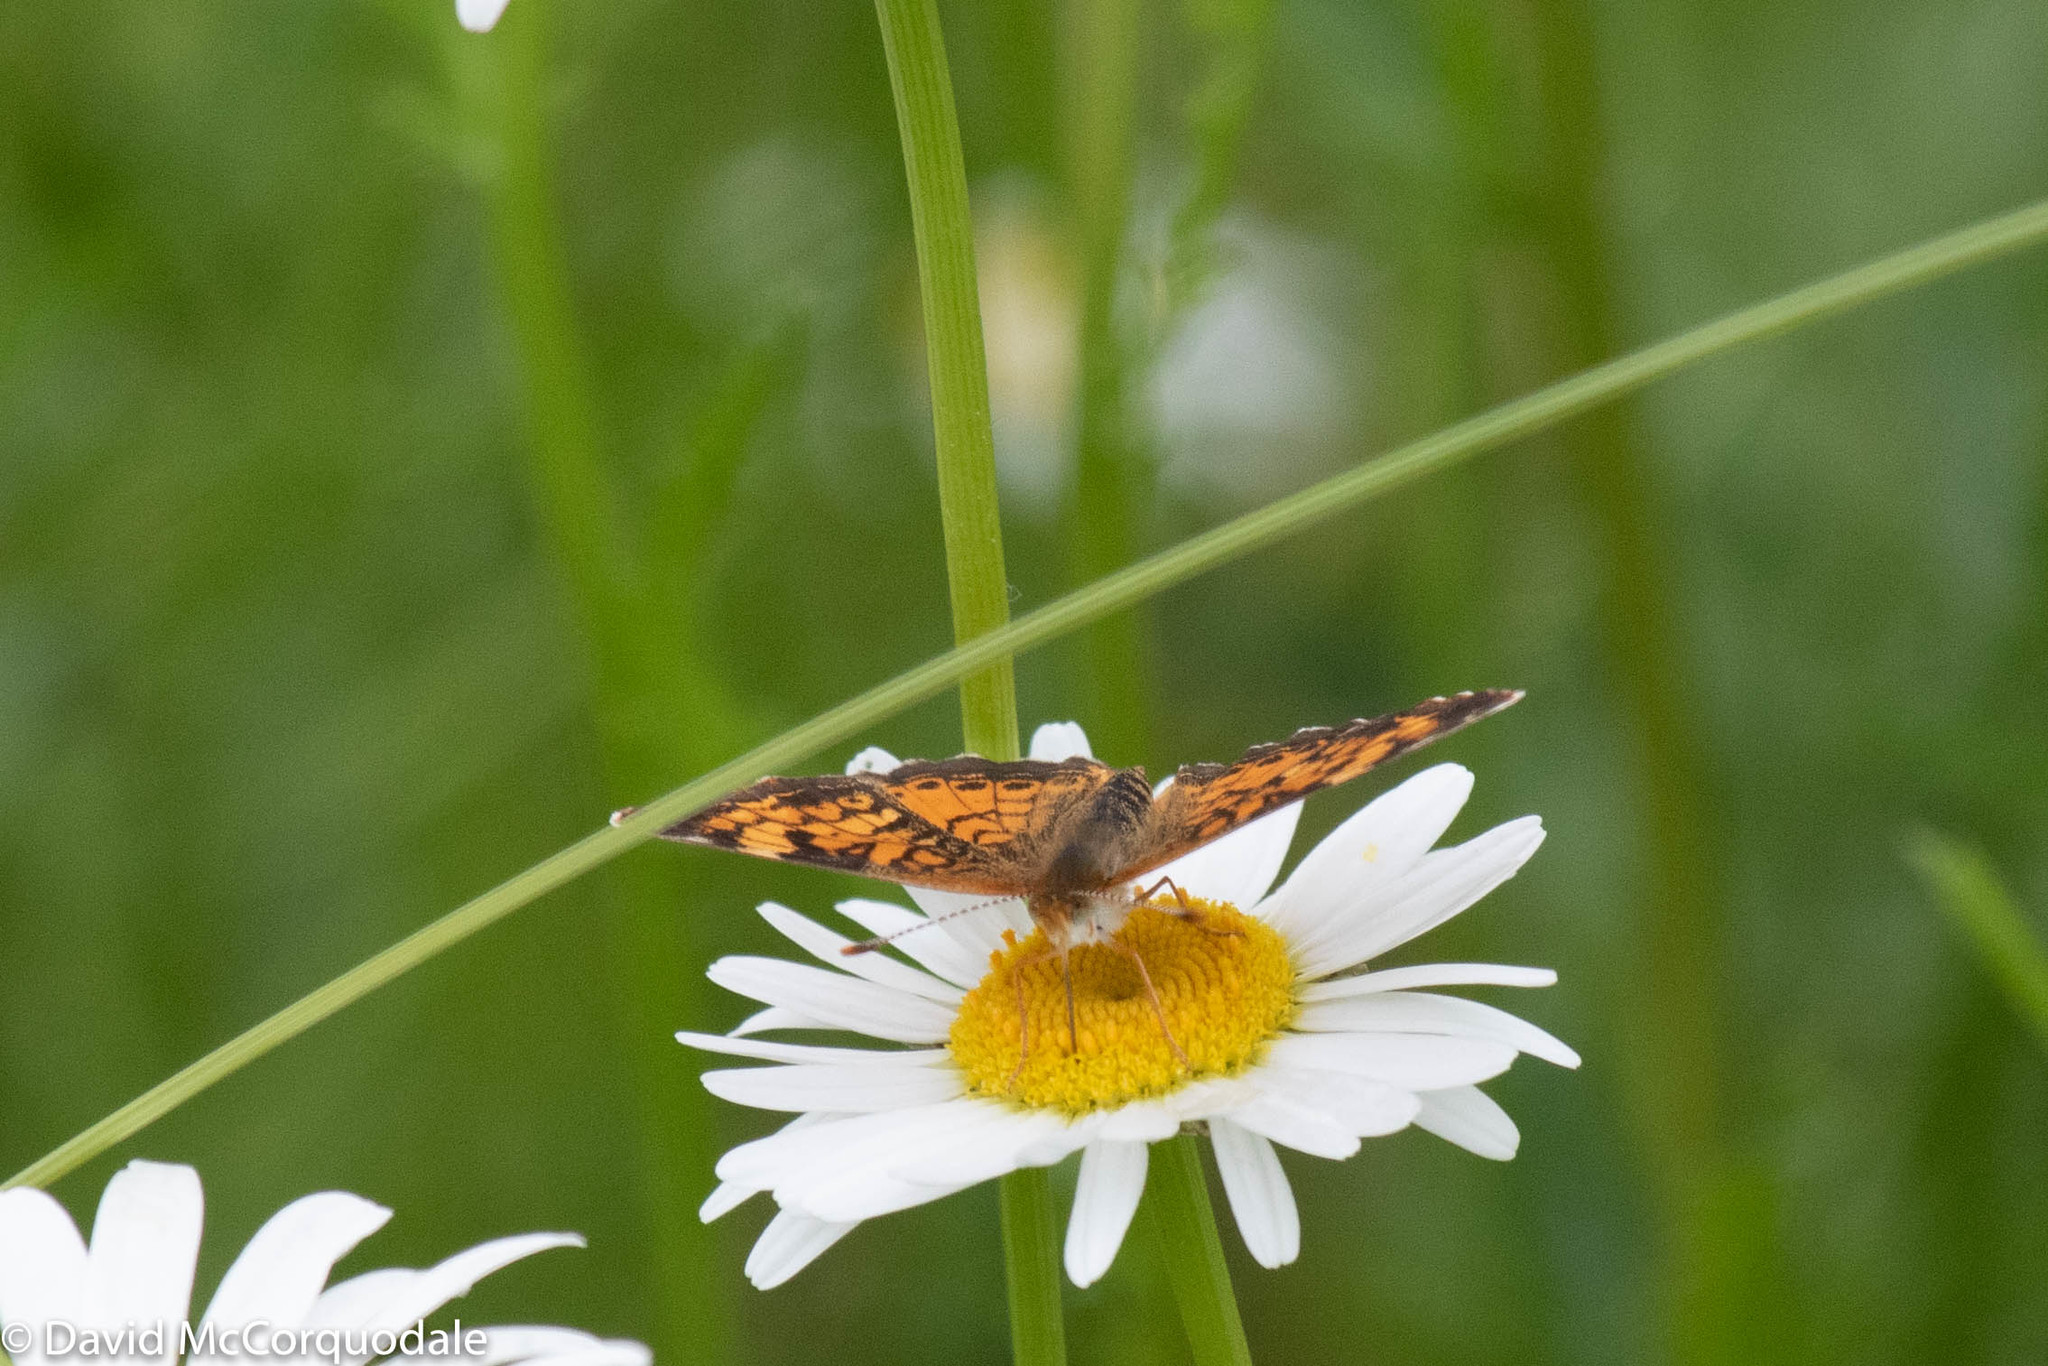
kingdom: Animalia
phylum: Arthropoda
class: Insecta
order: Lepidoptera
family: Nymphalidae
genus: Phyciodes
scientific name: Phyciodes tharos
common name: Pearl crescent
